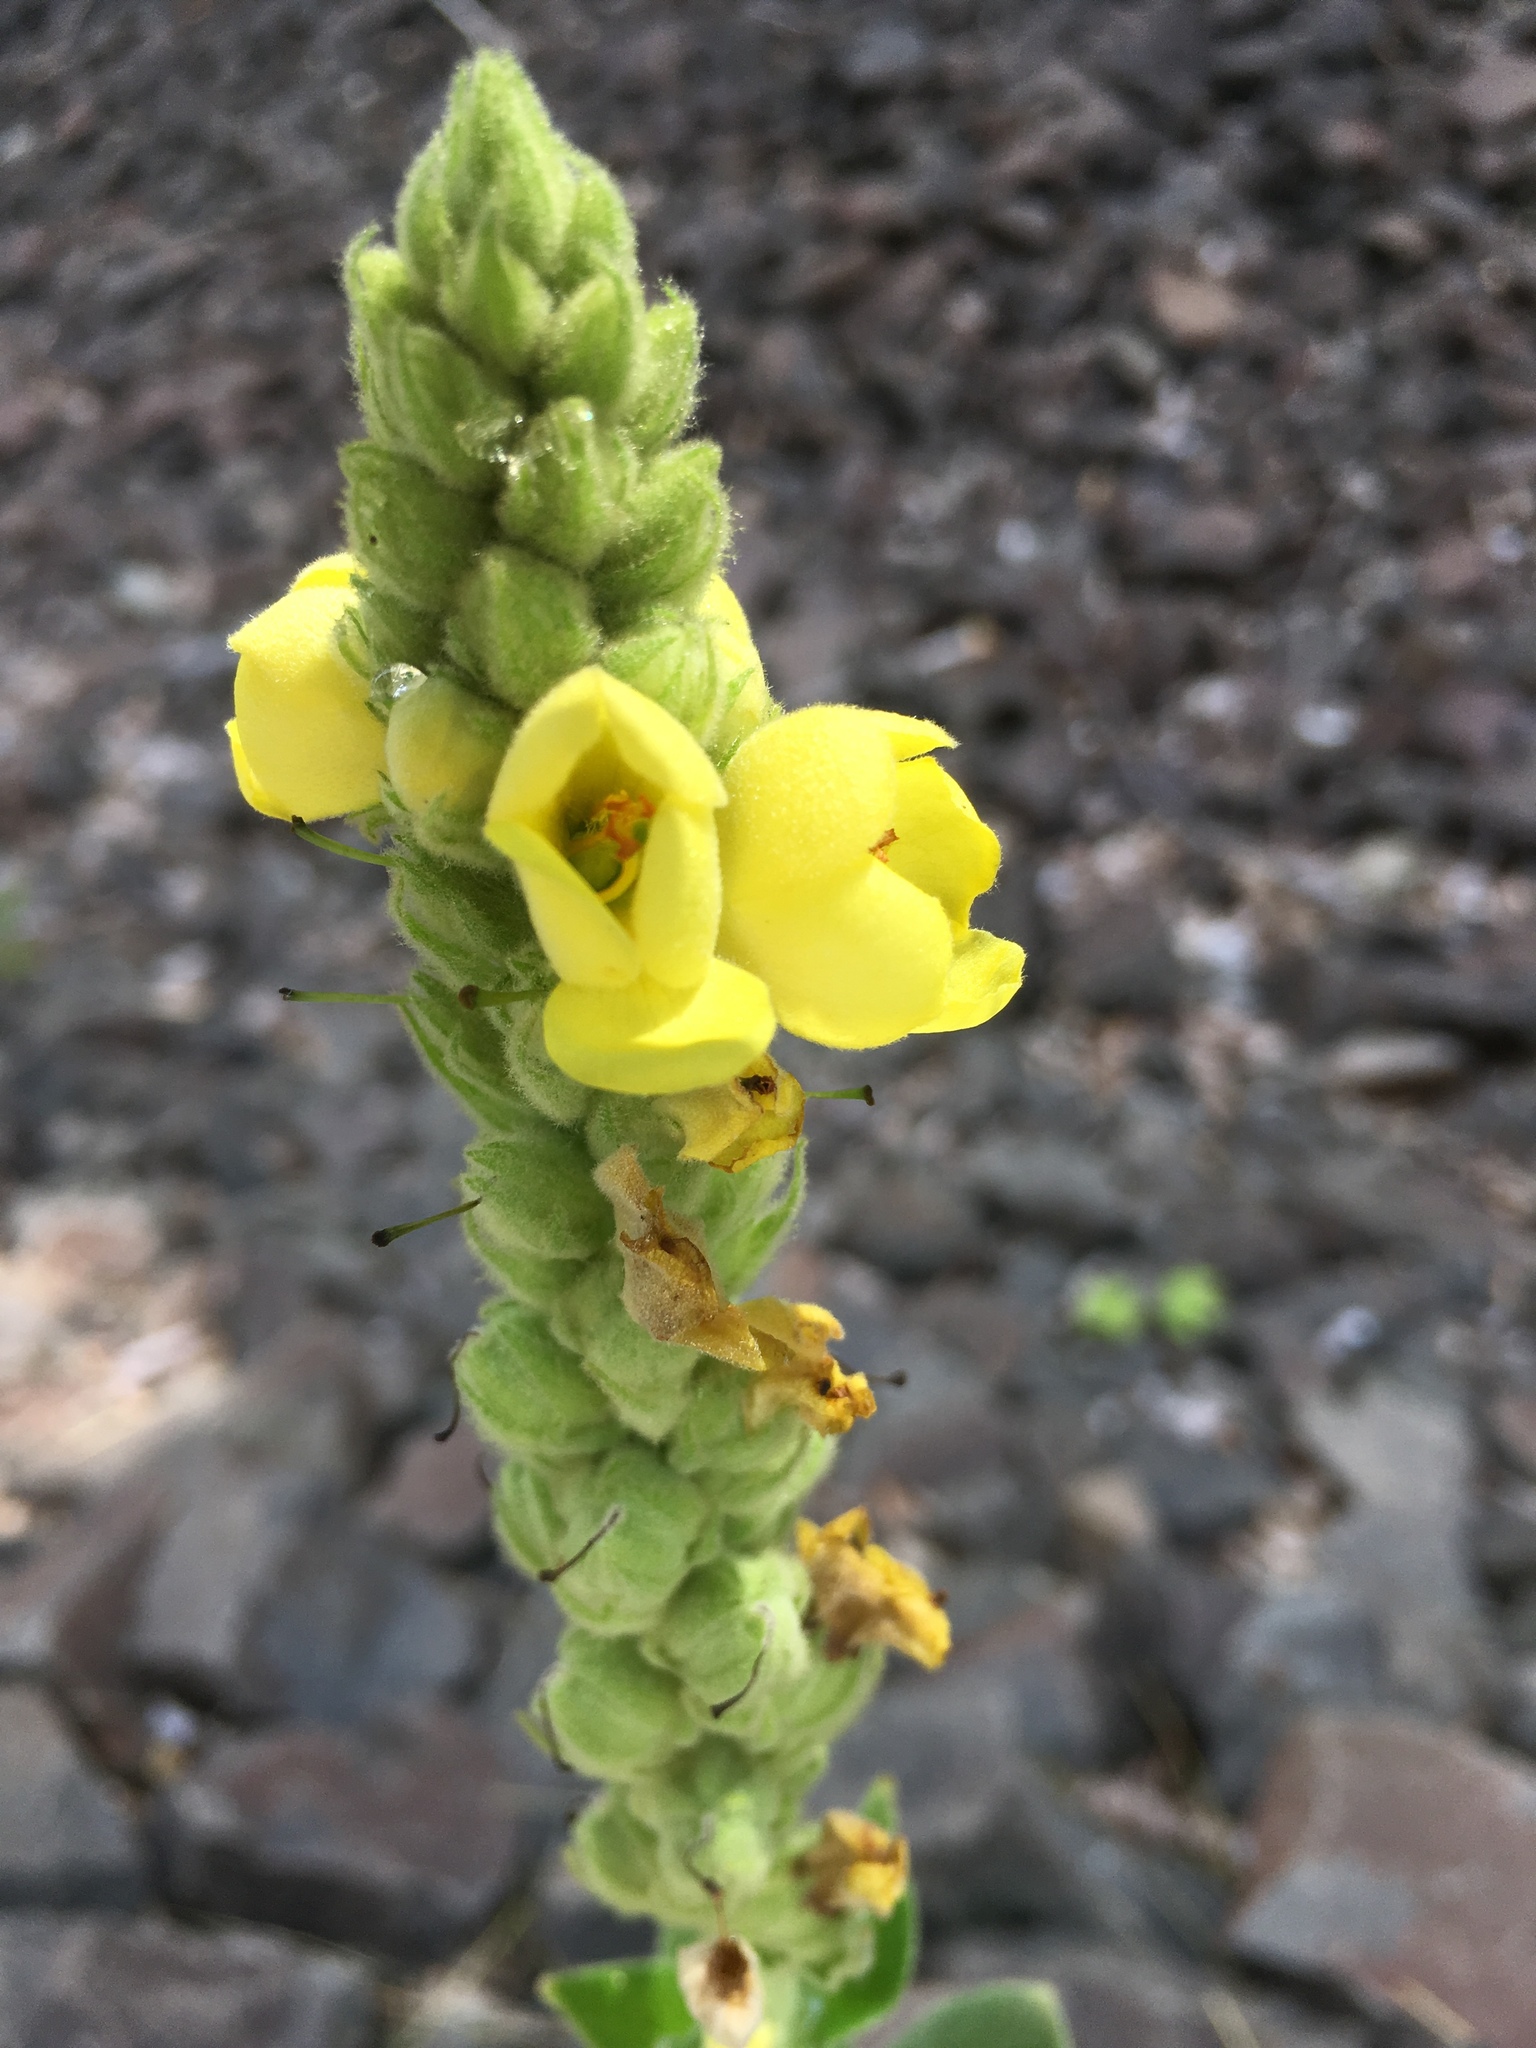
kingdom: Plantae
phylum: Tracheophyta
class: Magnoliopsida
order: Lamiales
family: Scrophulariaceae
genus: Verbascum
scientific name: Verbascum thapsus
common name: Common mullein
